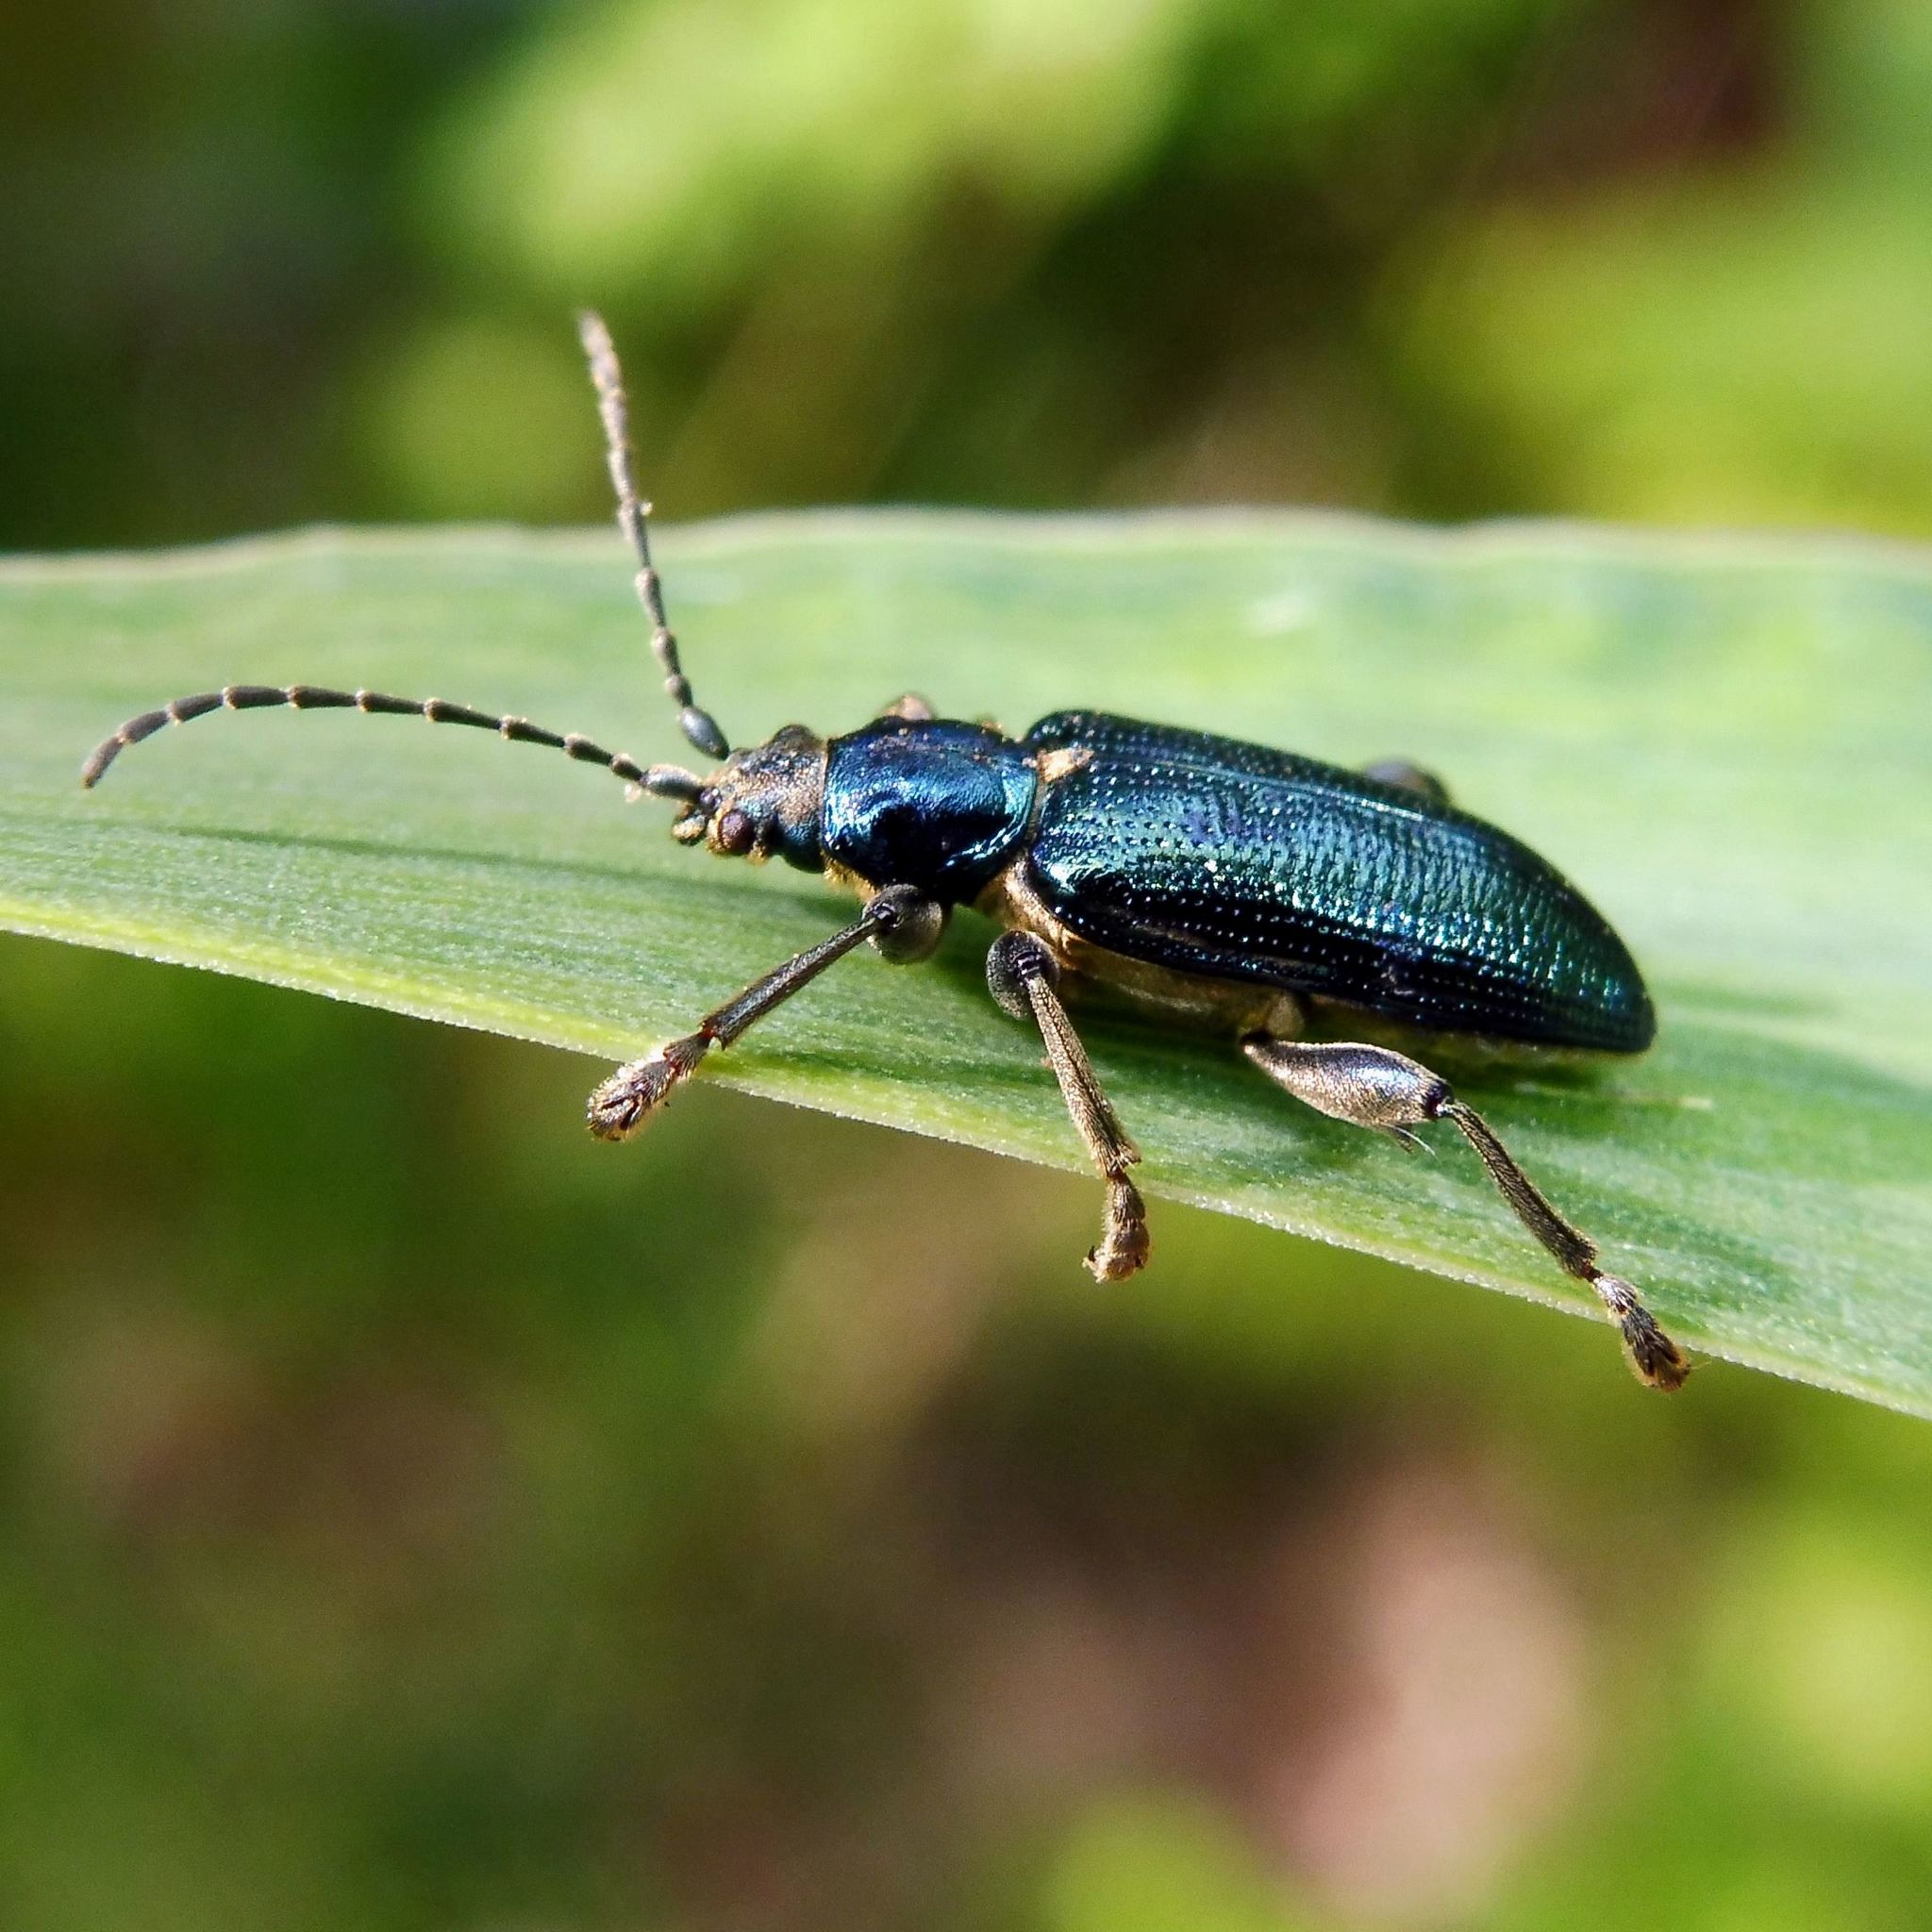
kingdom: Animalia
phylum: Arthropoda
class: Insecta
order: Coleoptera
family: Chrysomelidae
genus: Plateumaris
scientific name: Plateumaris sericea
